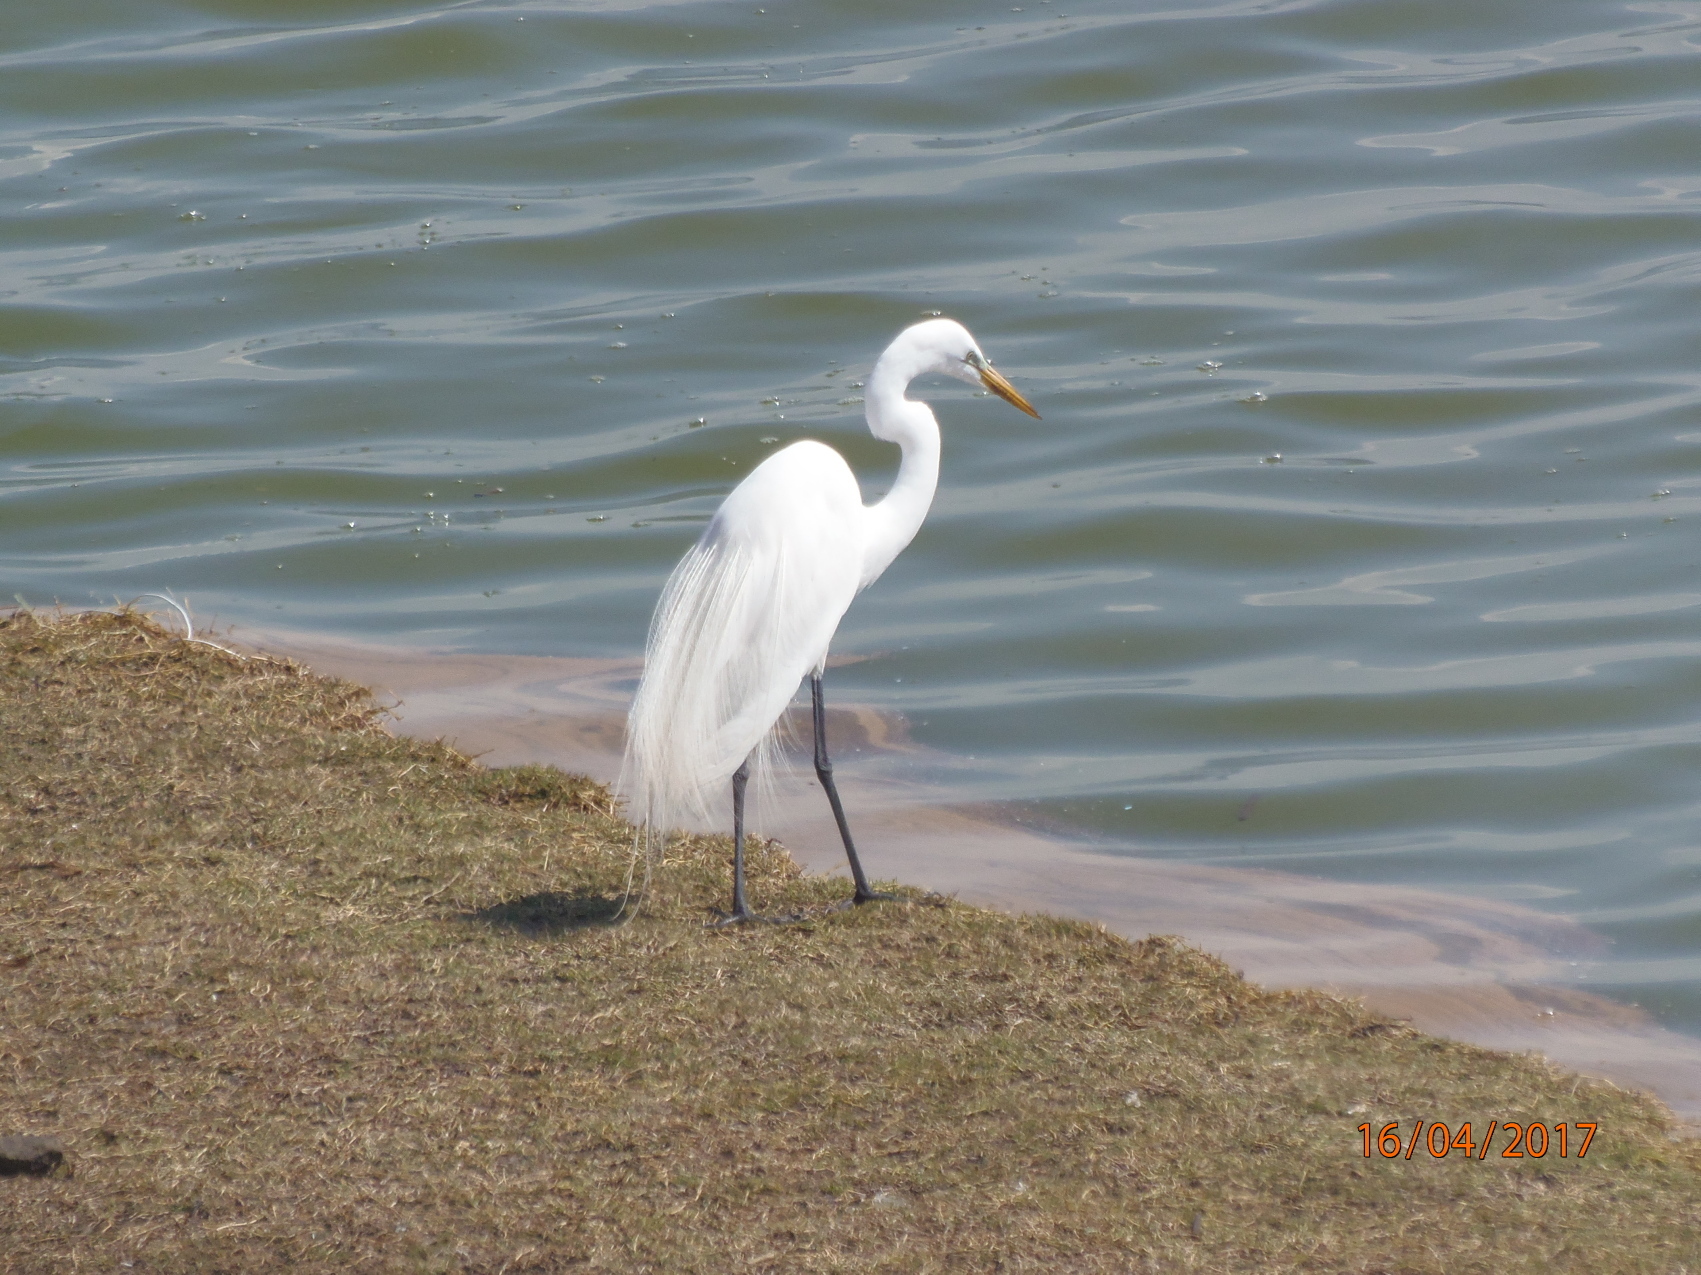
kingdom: Animalia
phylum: Chordata
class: Aves
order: Pelecaniformes
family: Ardeidae
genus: Ardea
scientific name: Ardea alba
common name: Great egret
